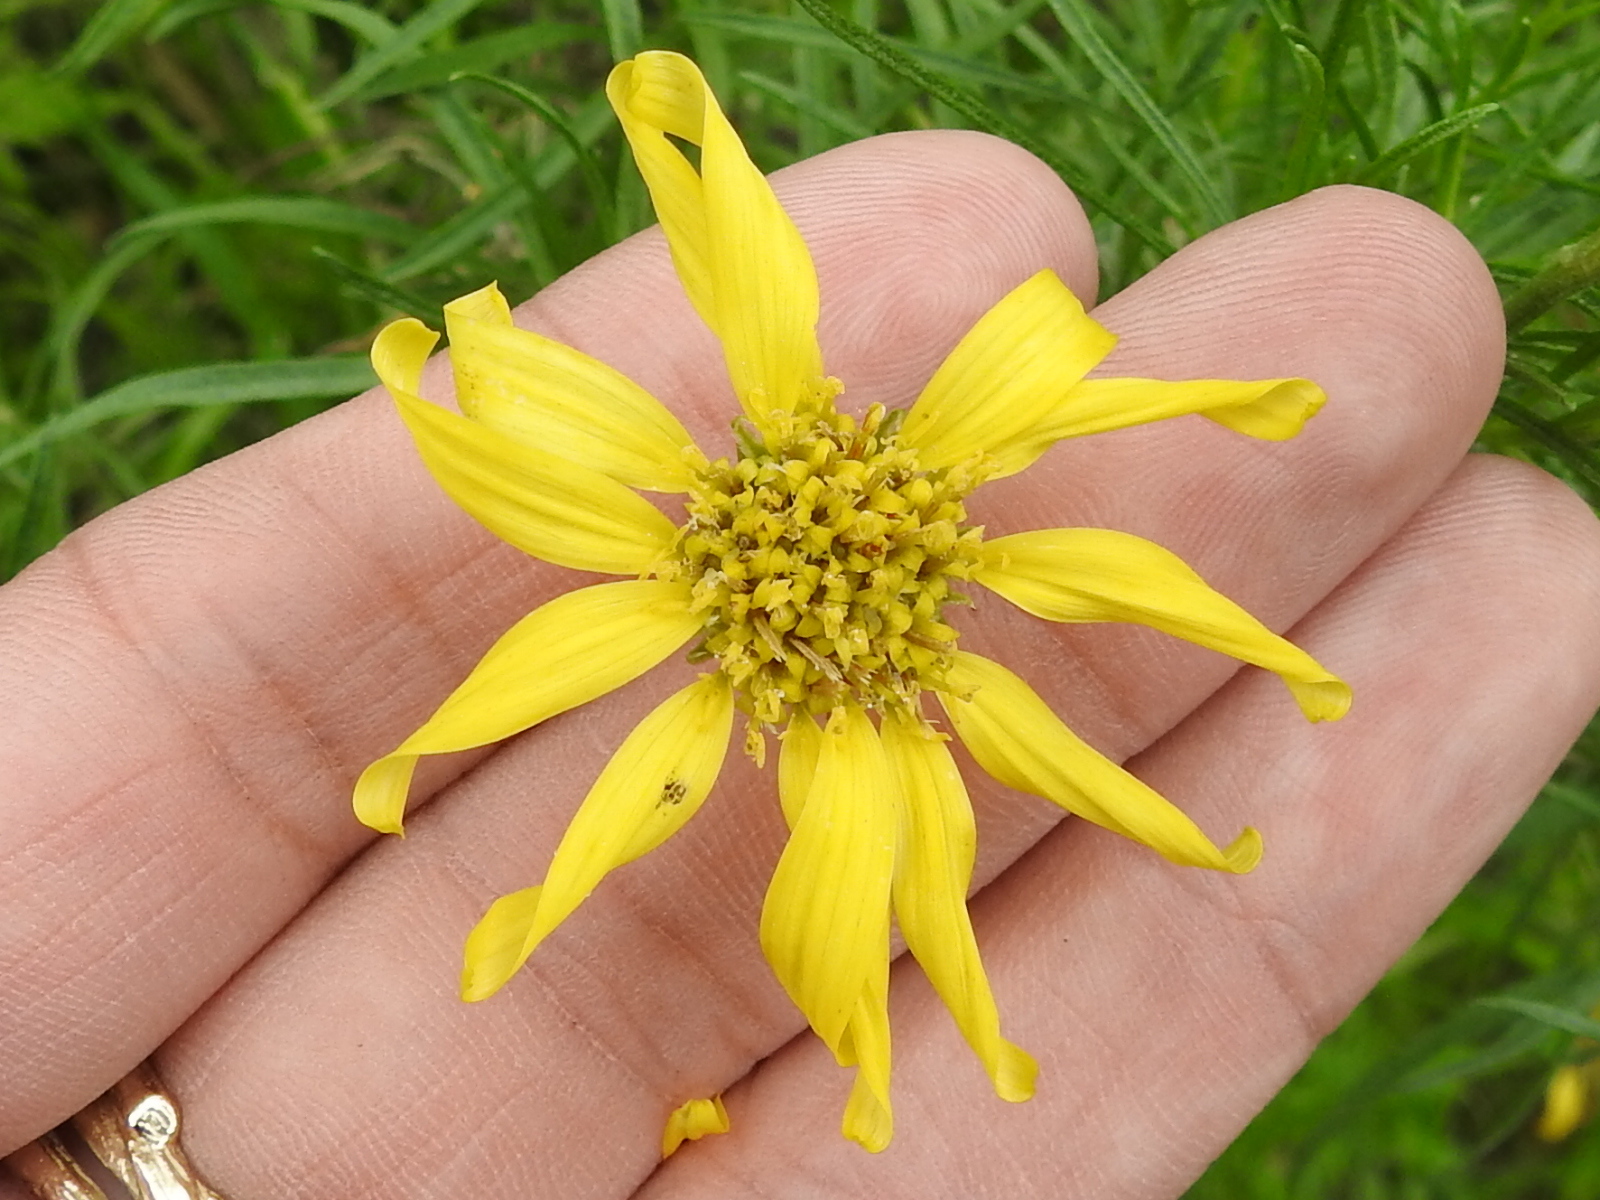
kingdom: Plantae
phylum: Tracheophyta
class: Magnoliopsida
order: Asterales
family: Asteraceae
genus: Ericameria
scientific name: Ericameria linearifolia
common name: Interior goldenbush
